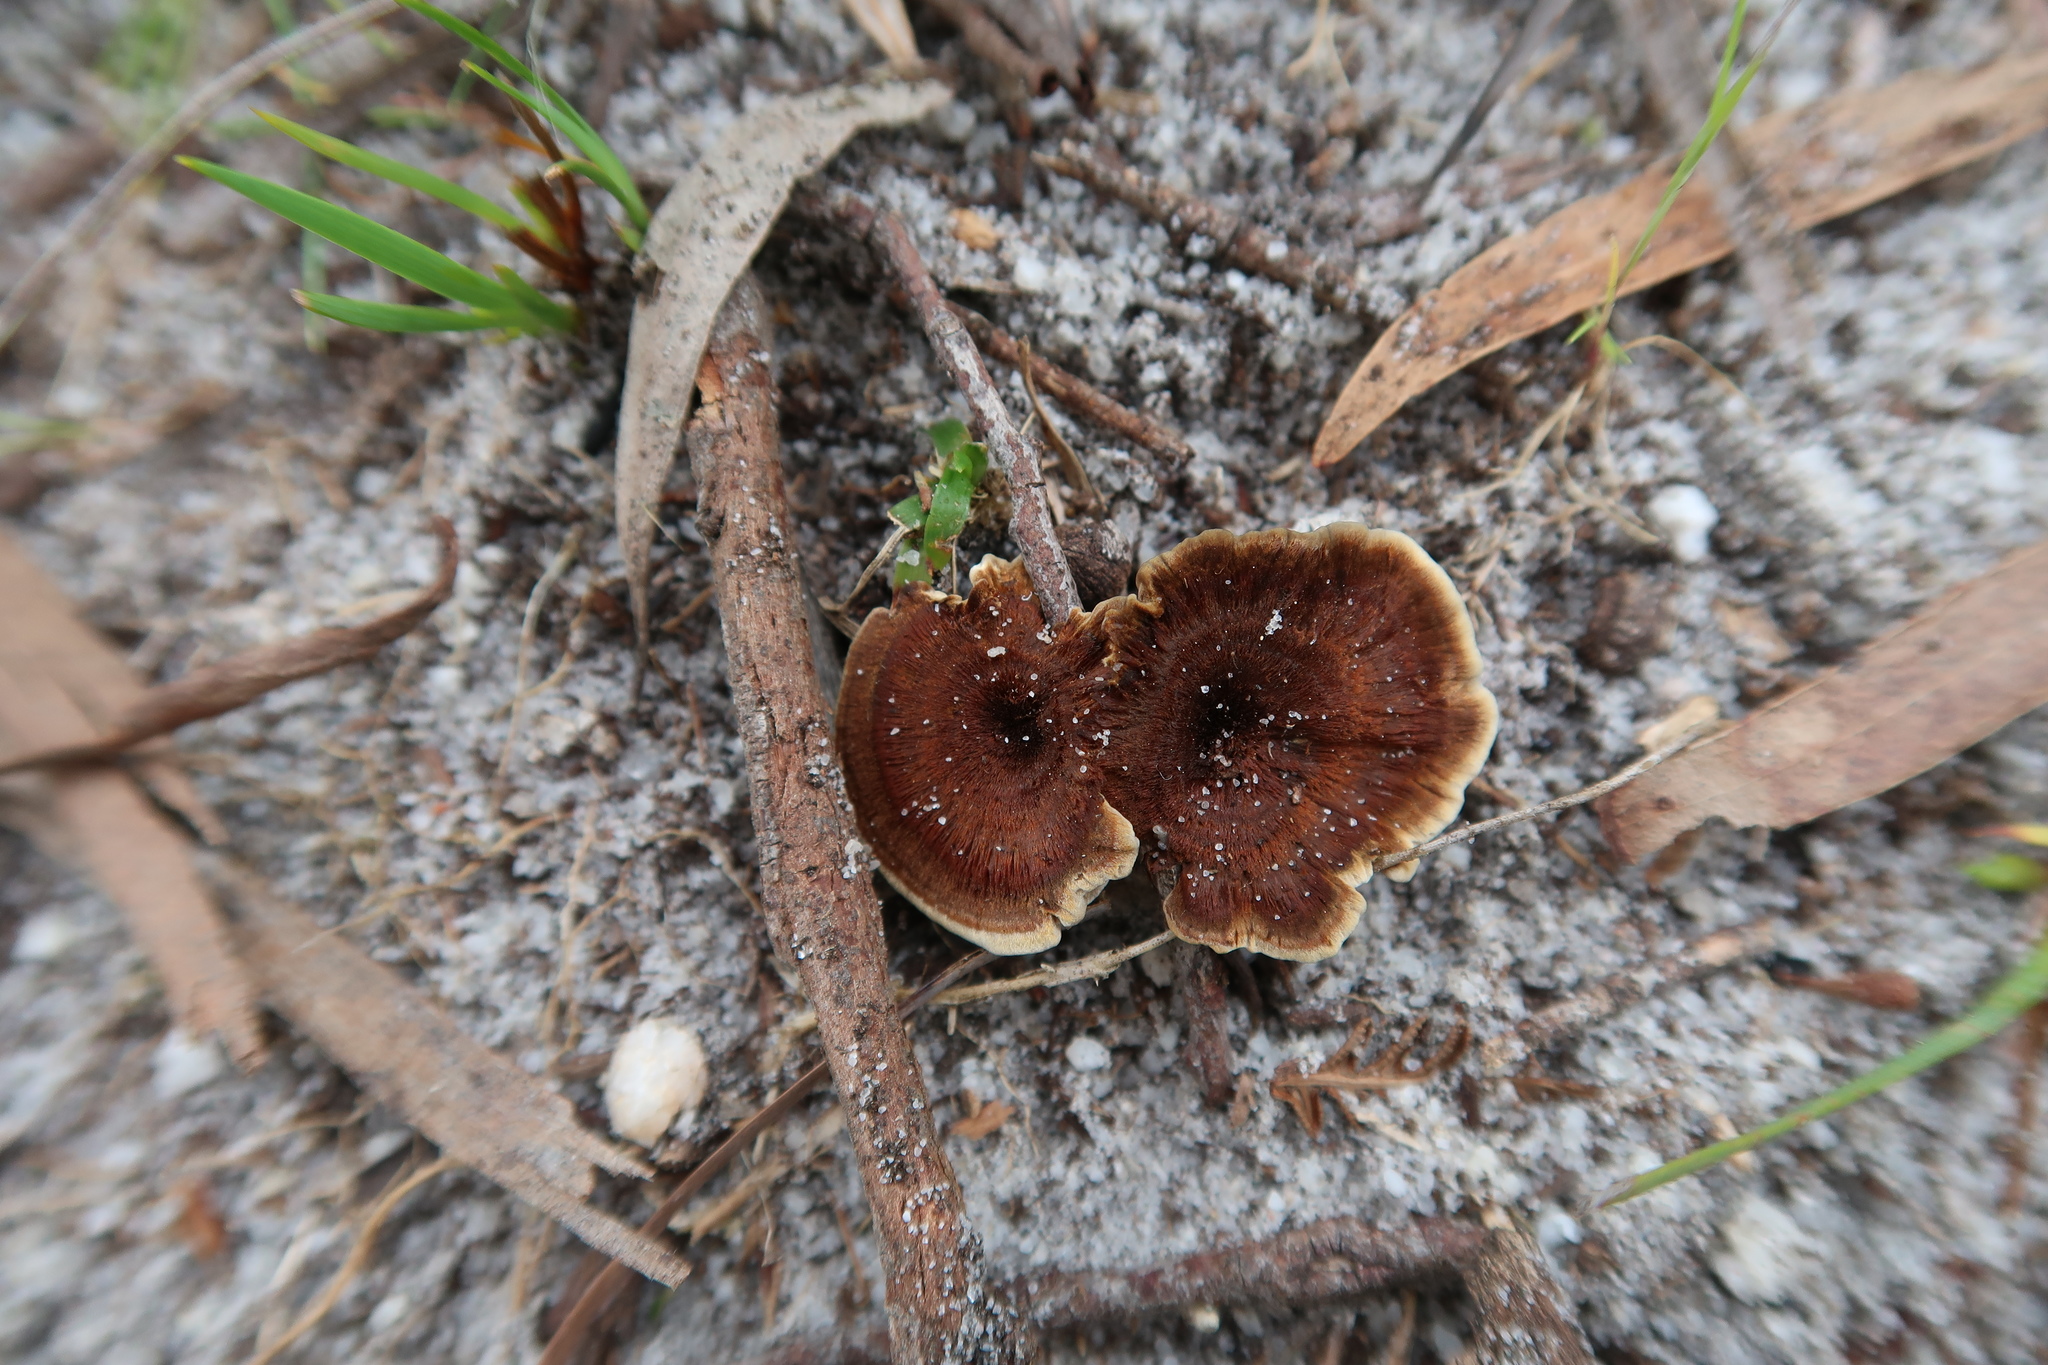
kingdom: Fungi
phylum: Basidiomycota
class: Agaricomycetes
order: Hymenochaetales
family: Hymenochaetaceae
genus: Coltricia
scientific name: Coltricia
